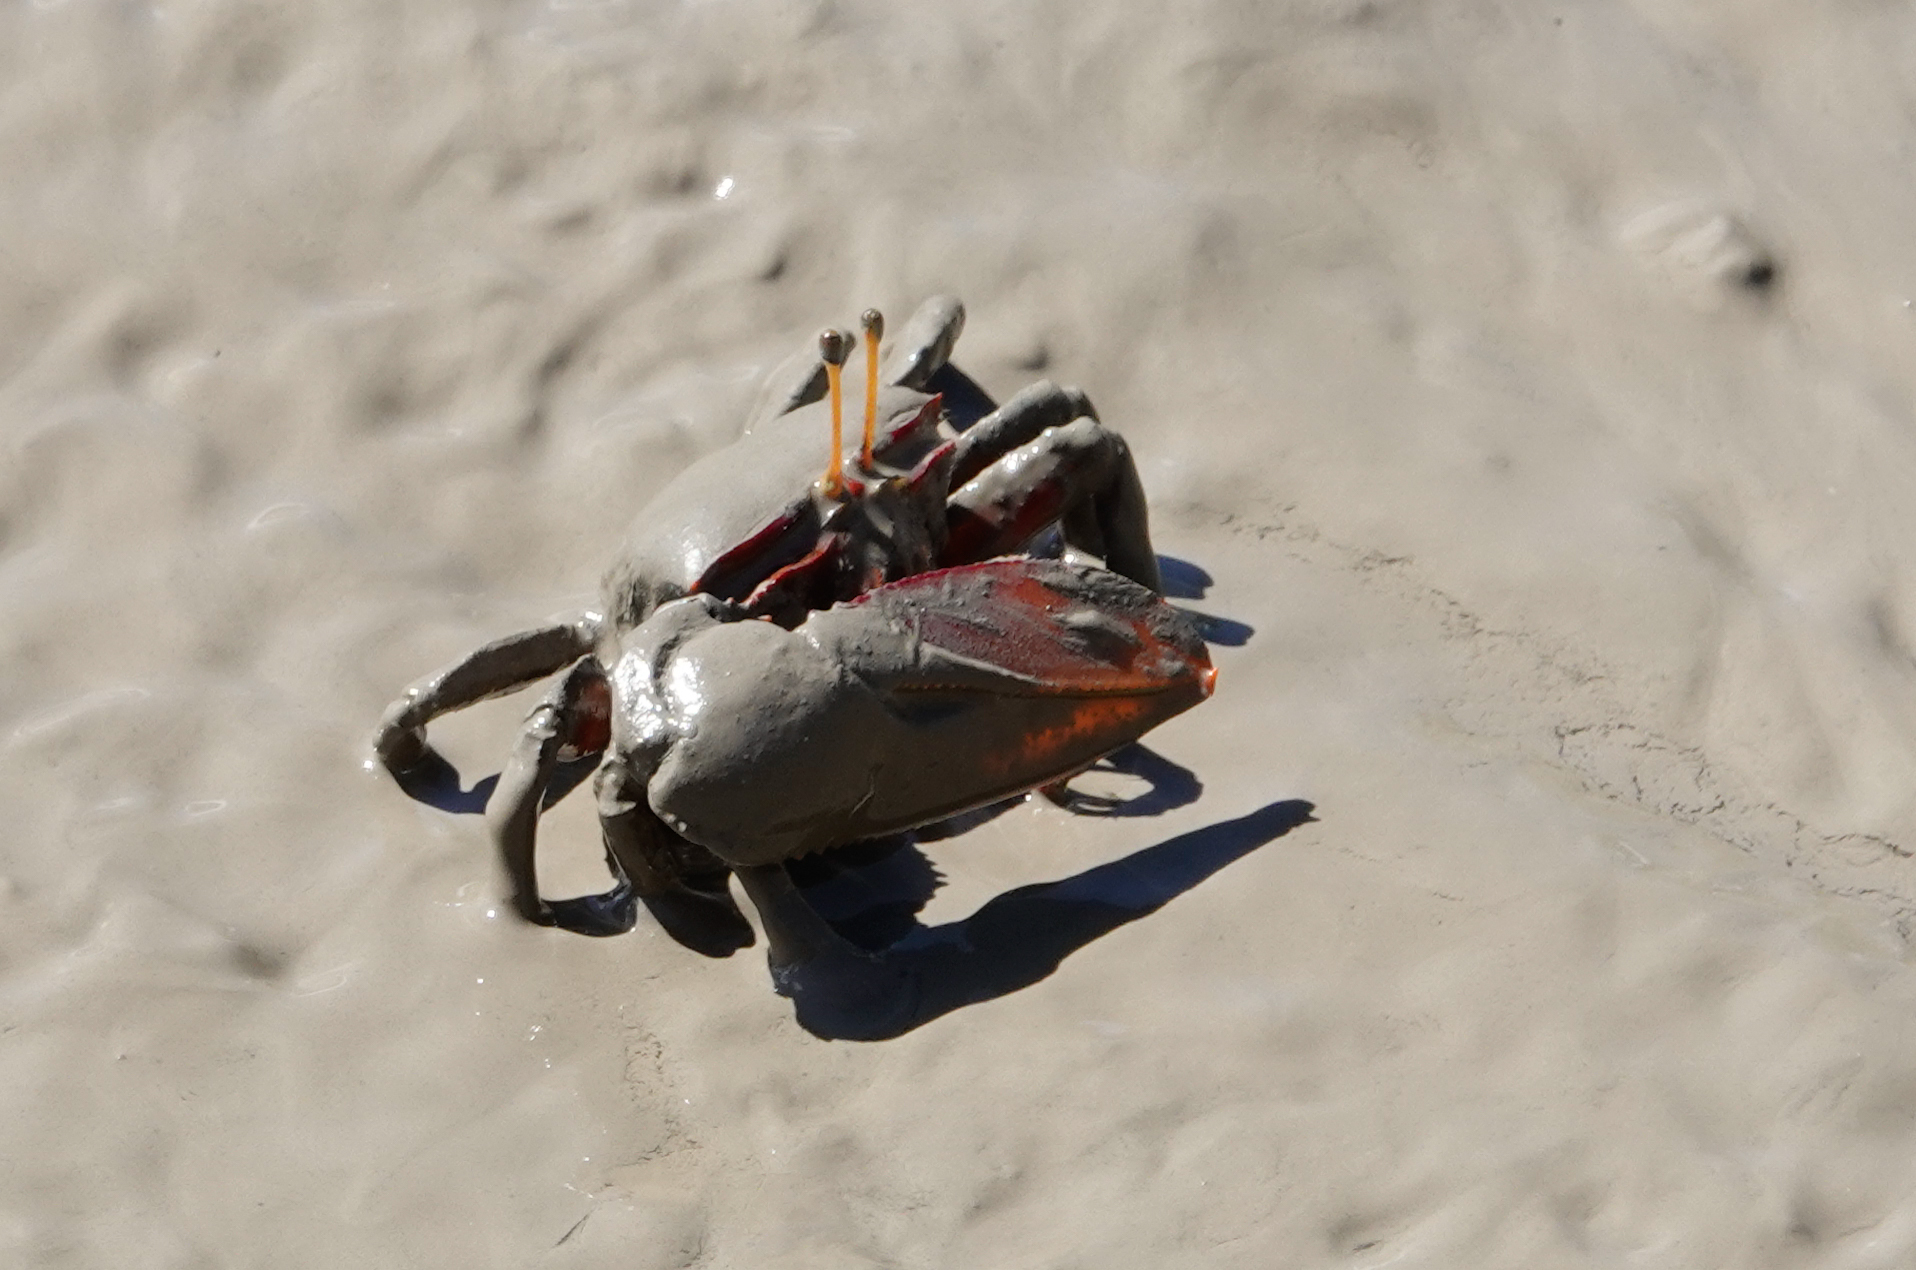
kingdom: Animalia
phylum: Arthropoda
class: Malacostraca
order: Decapoda
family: Ocypodidae
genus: Uca
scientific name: Uca maracoani
